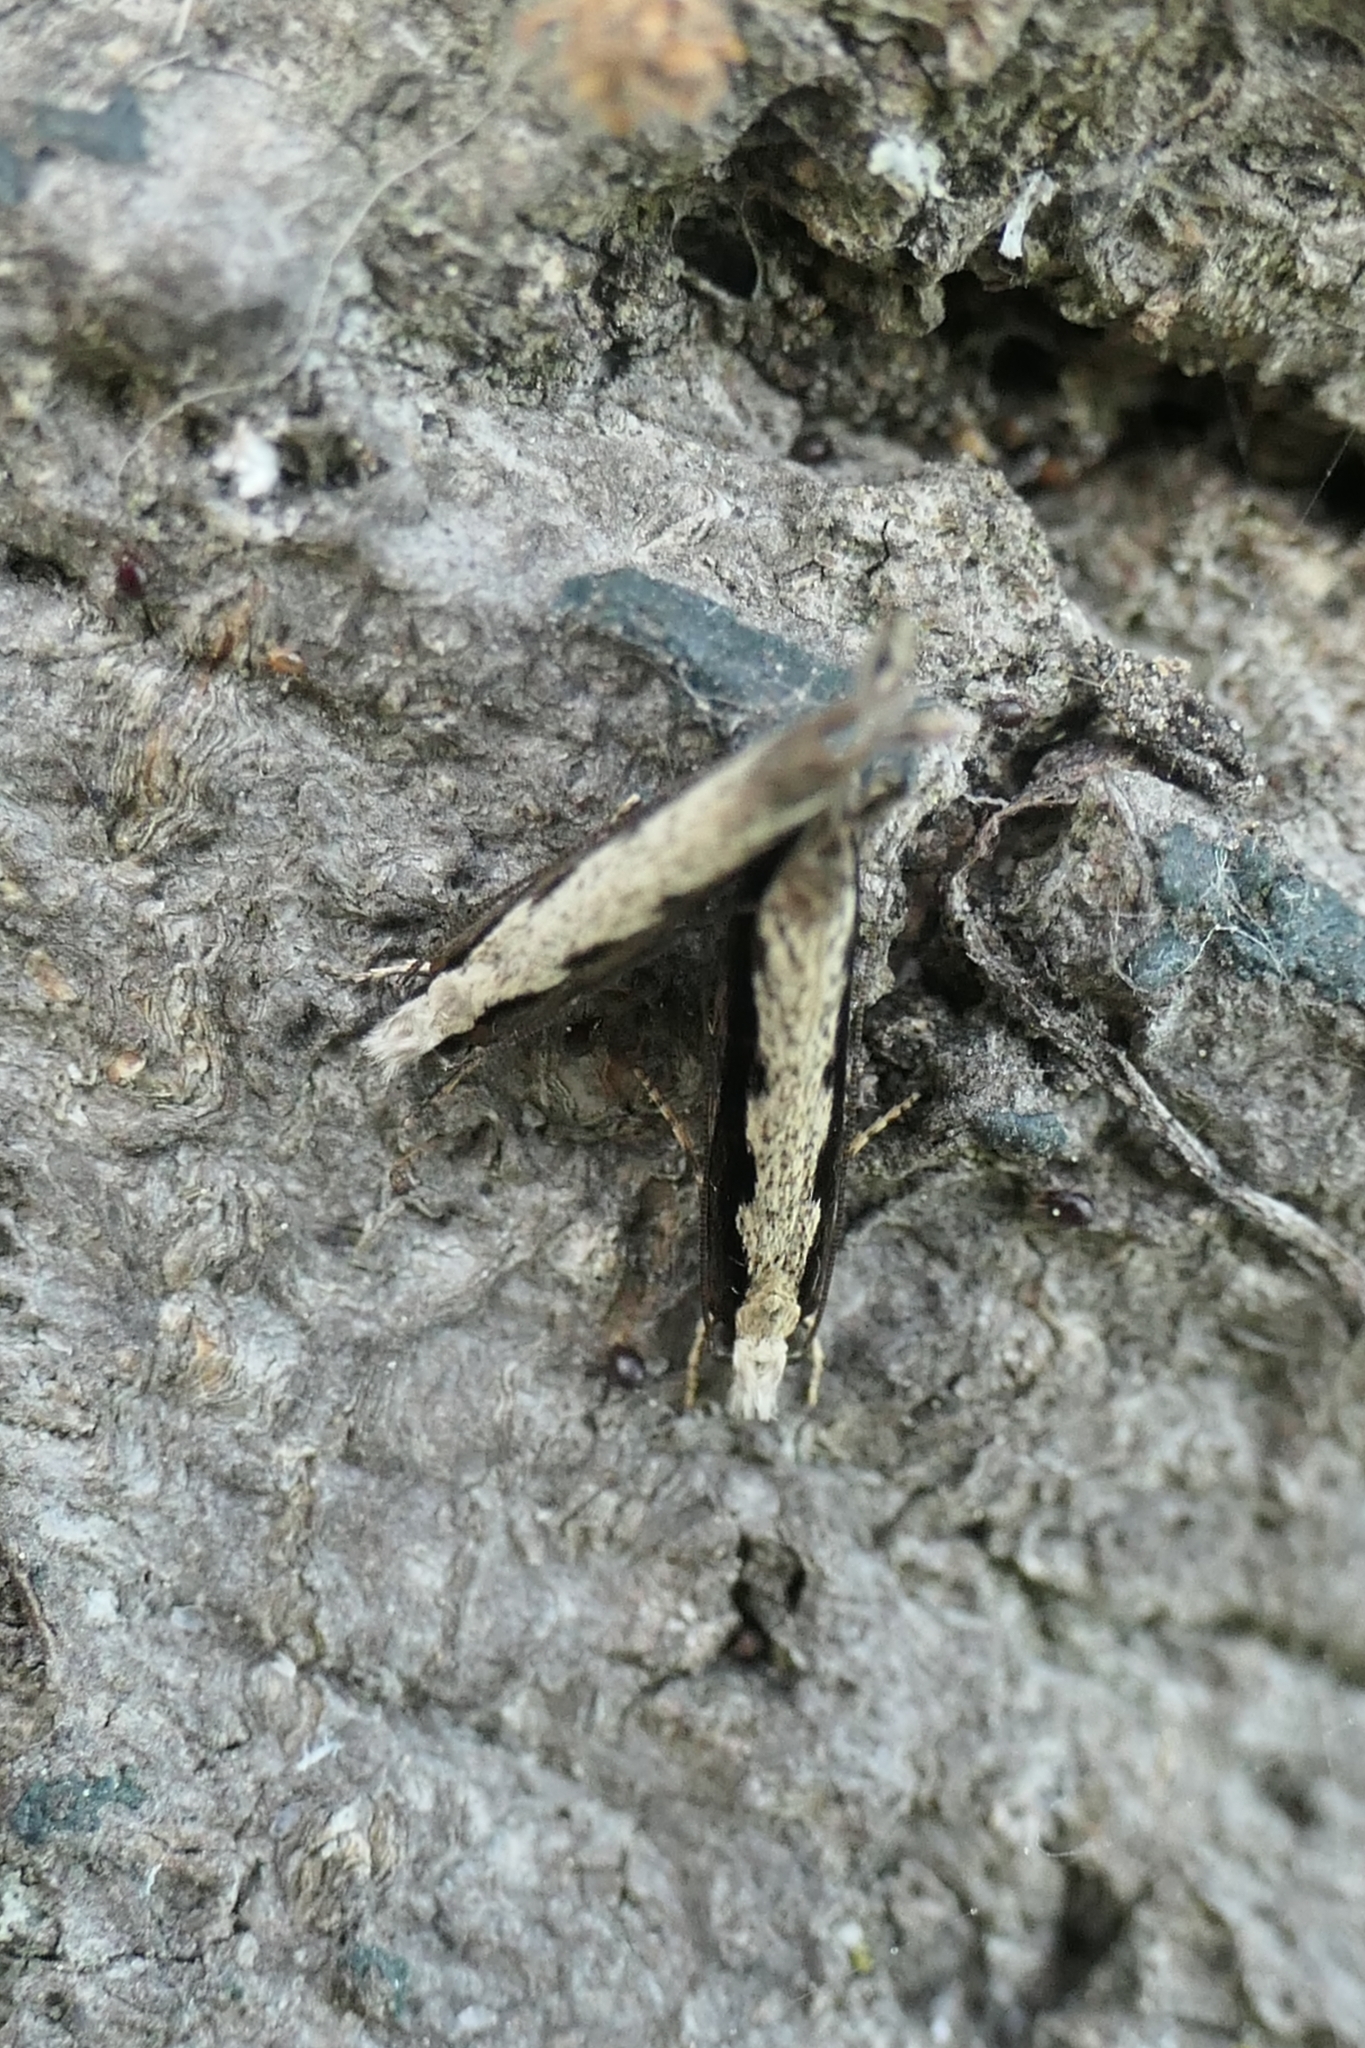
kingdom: Animalia
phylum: Arthropoda
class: Insecta
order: Lepidoptera
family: Tineidae
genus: Erechthias
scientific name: Erechthias fulguritella
